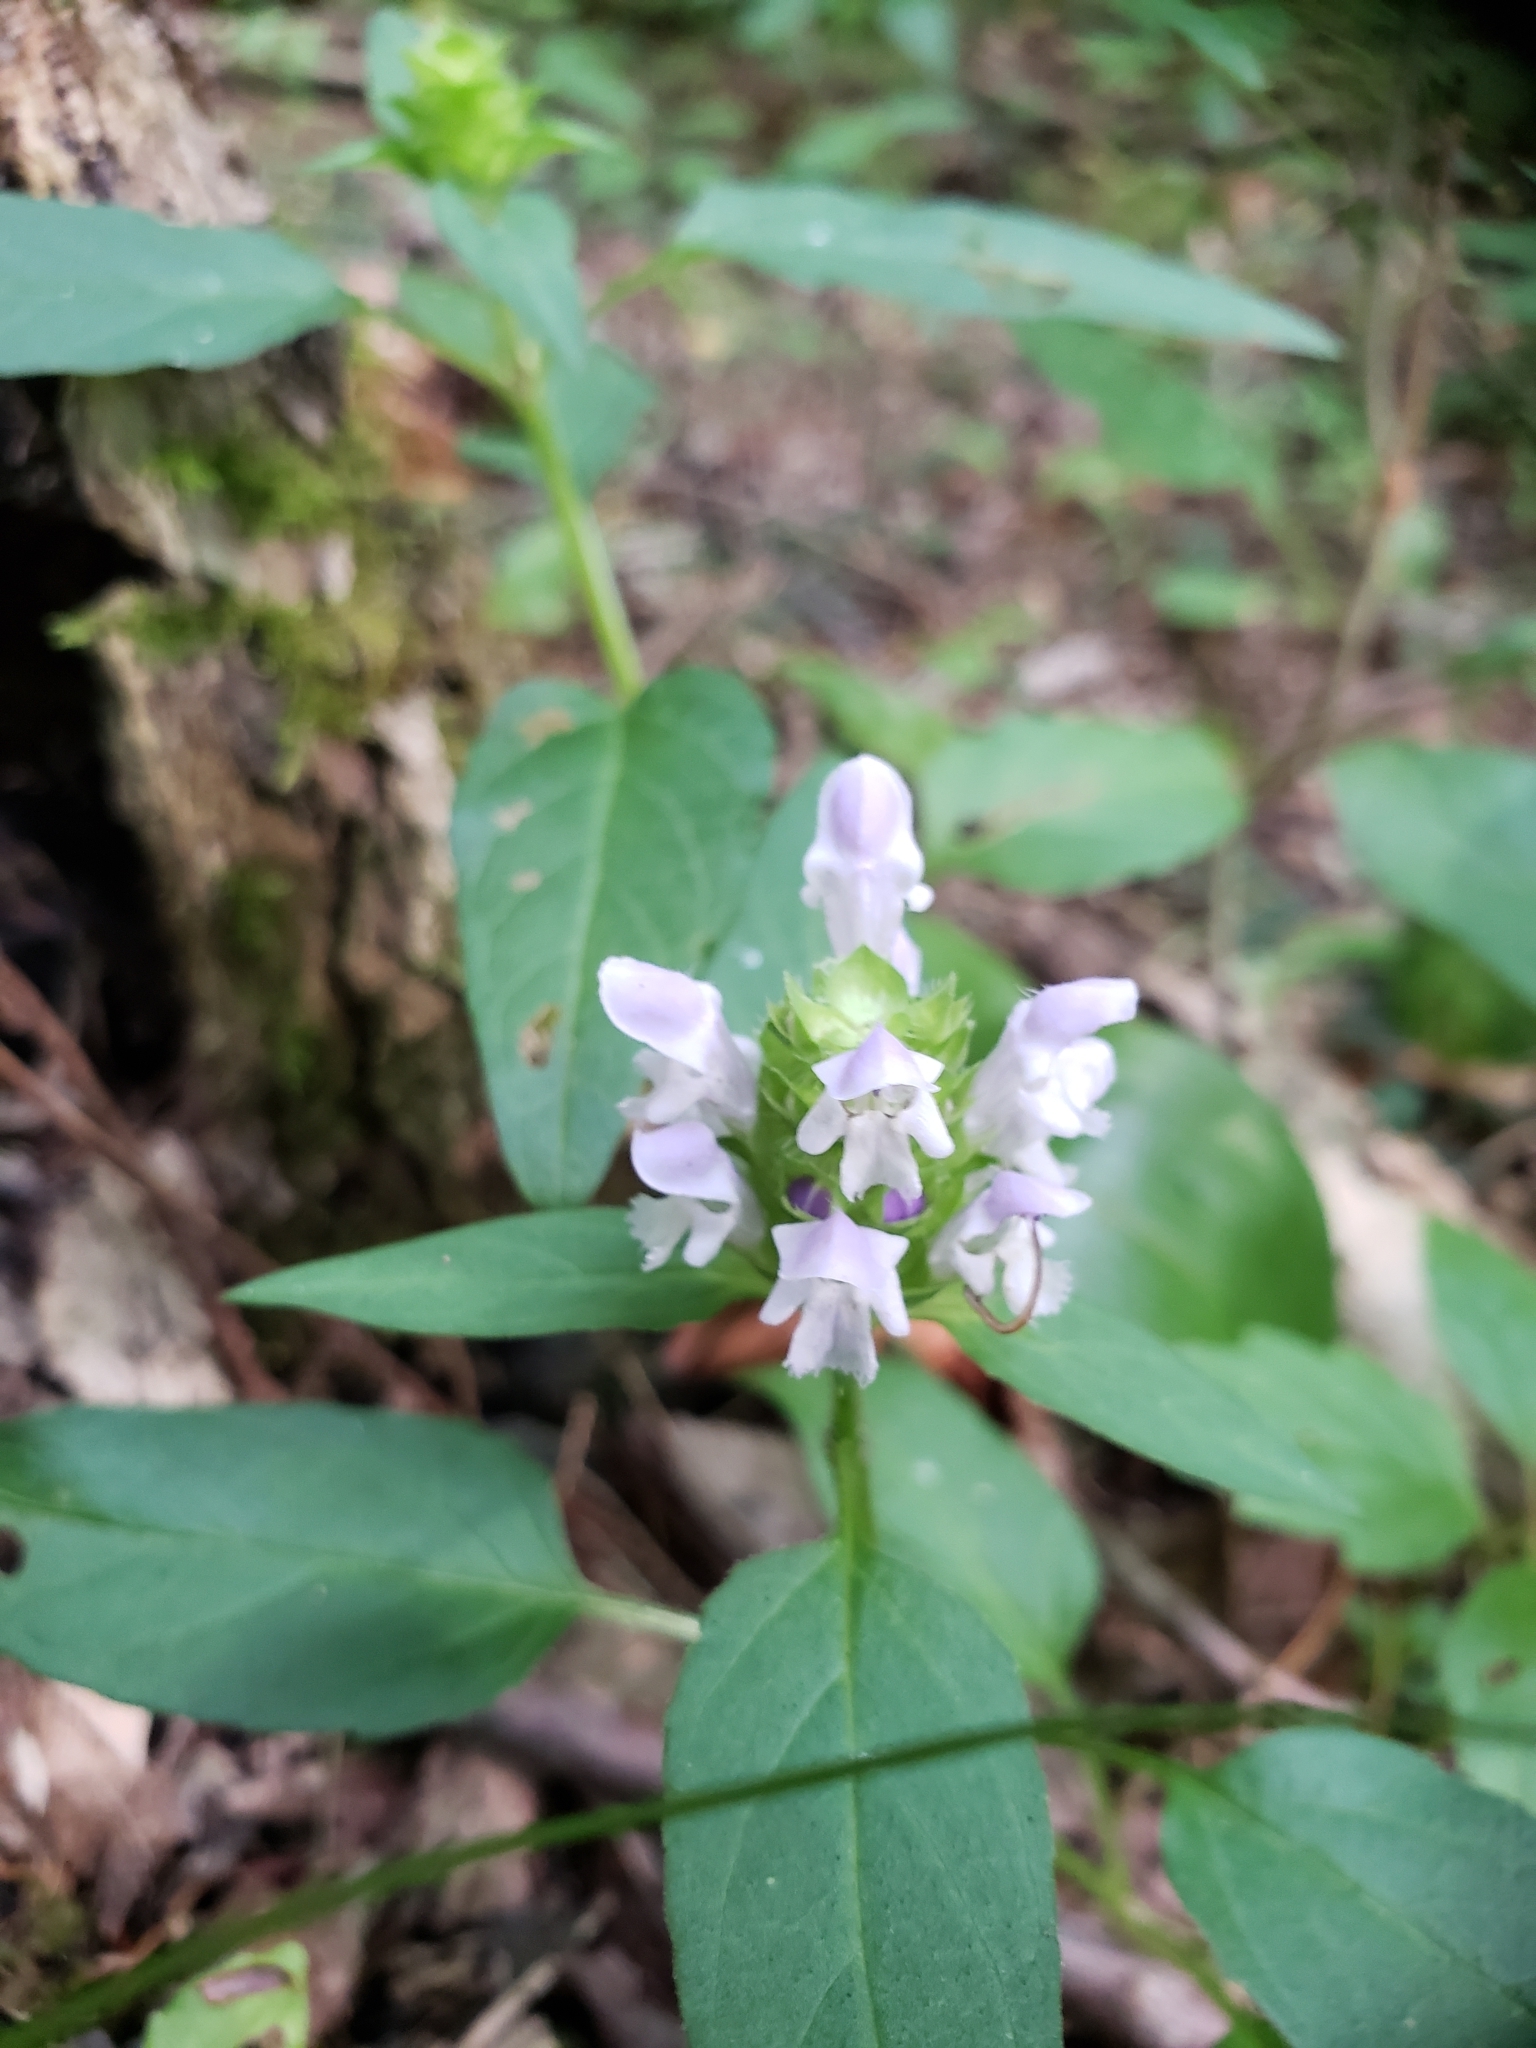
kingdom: Plantae
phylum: Tracheophyta
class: Magnoliopsida
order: Lamiales
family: Lamiaceae
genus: Prunella
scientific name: Prunella vulgaris
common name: Heal-all
